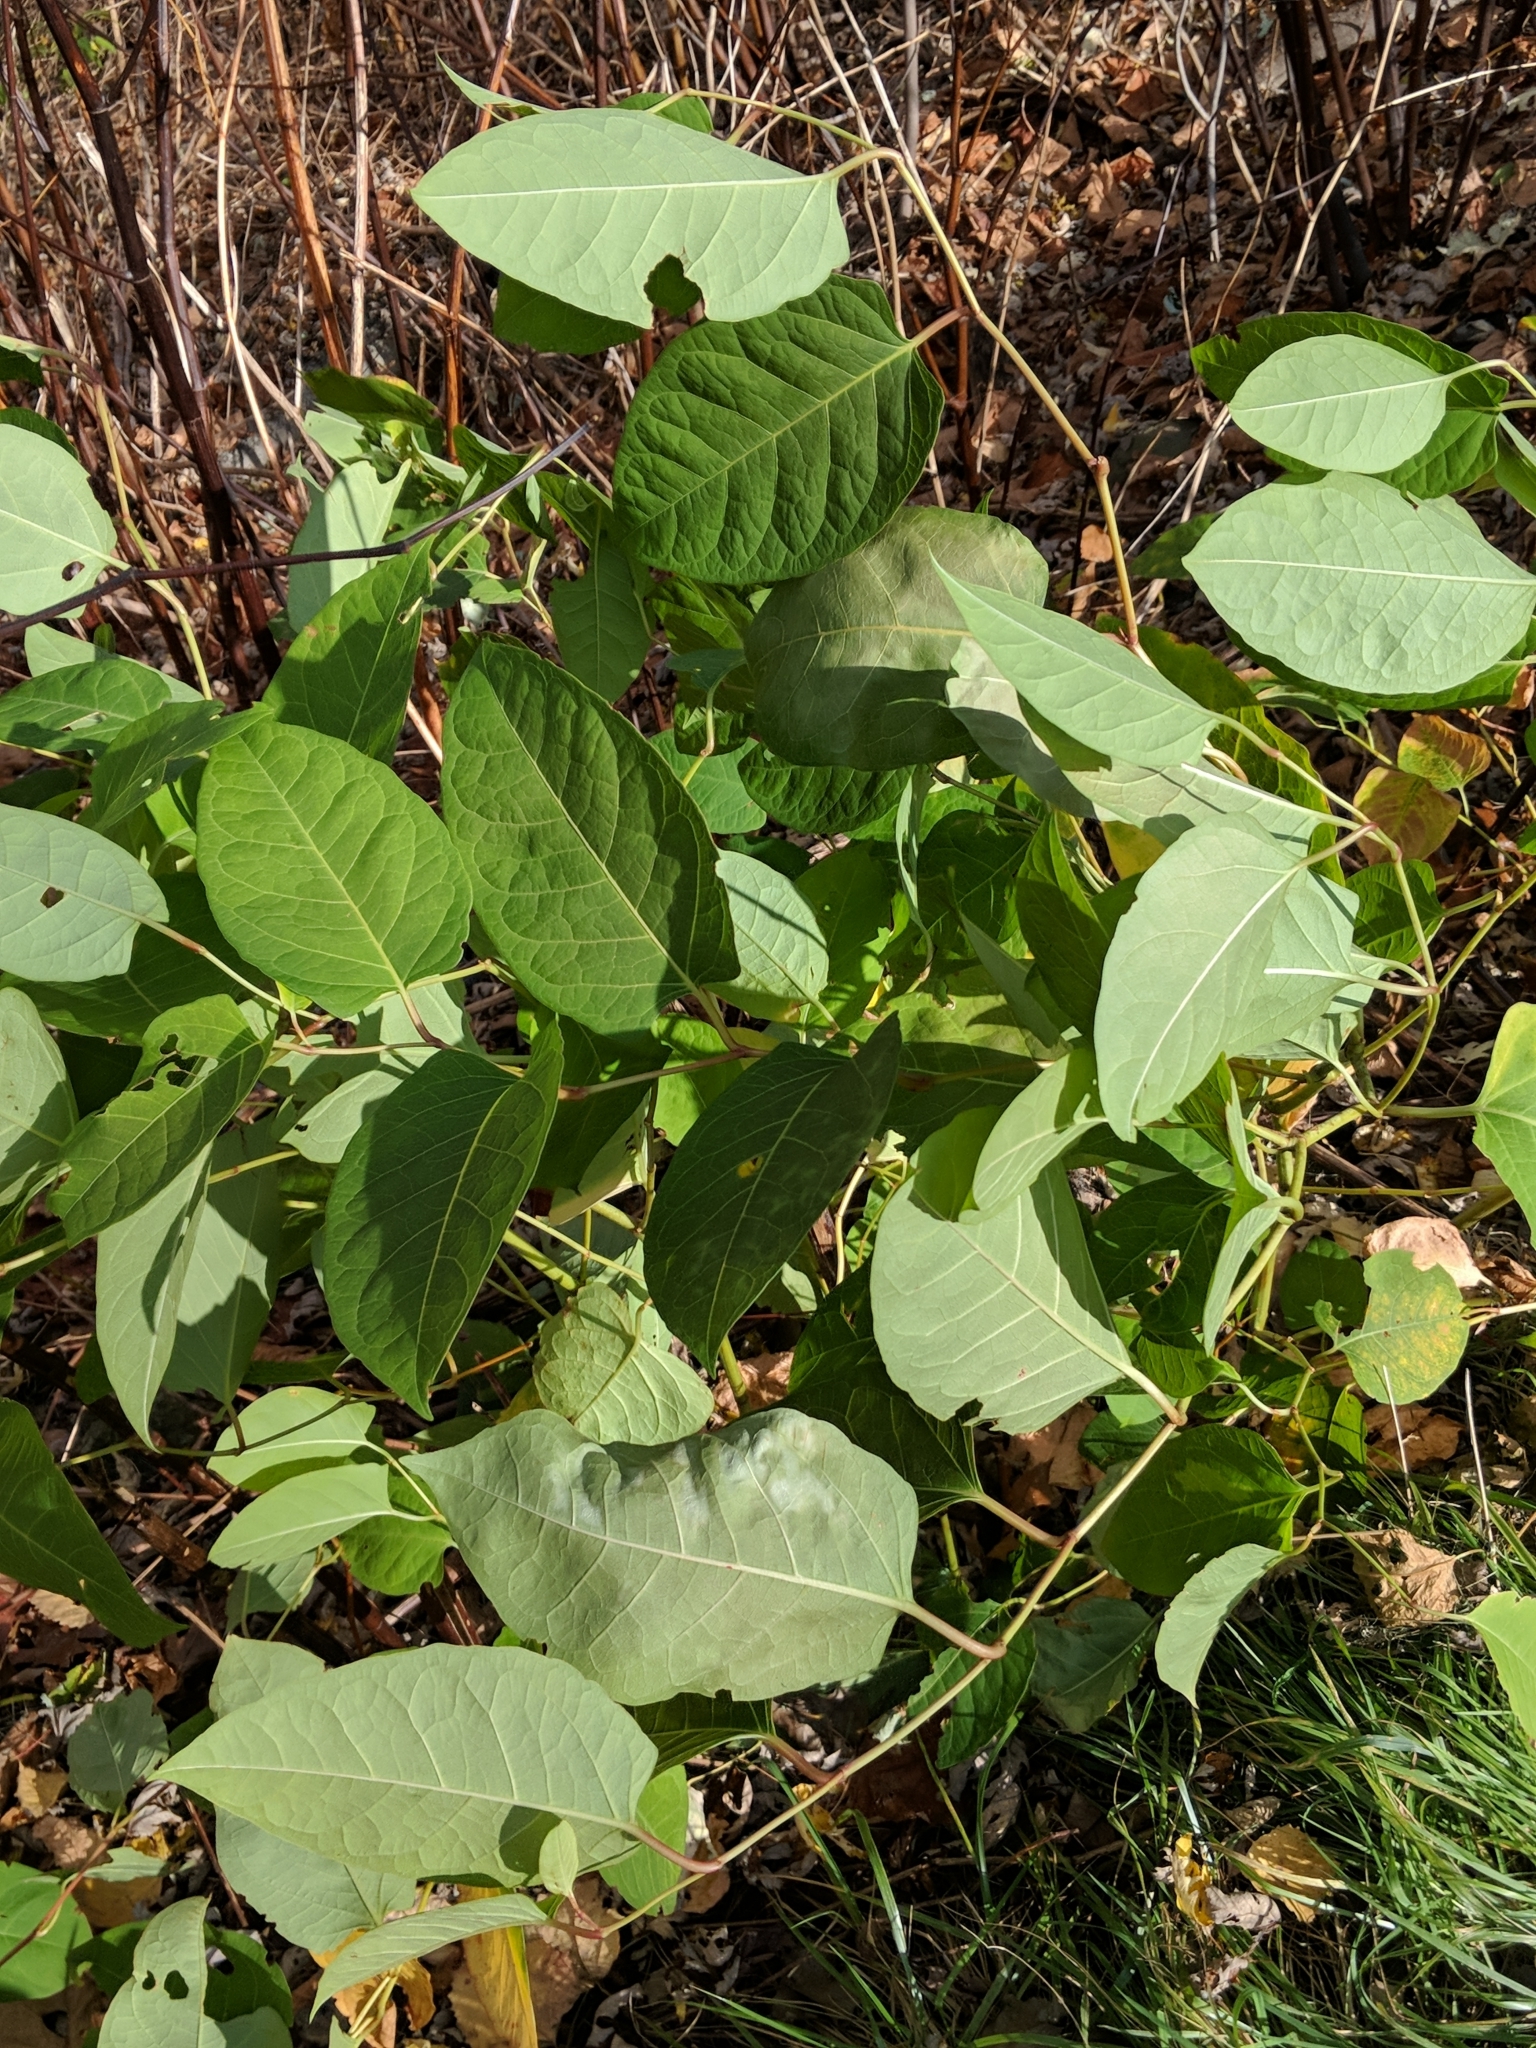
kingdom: Plantae
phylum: Tracheophyta
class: Magnoliopsida
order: Caryophyllales
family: Polygonaceae
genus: Reynoutria
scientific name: Reynoutria japonica
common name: Japanese knotweed
